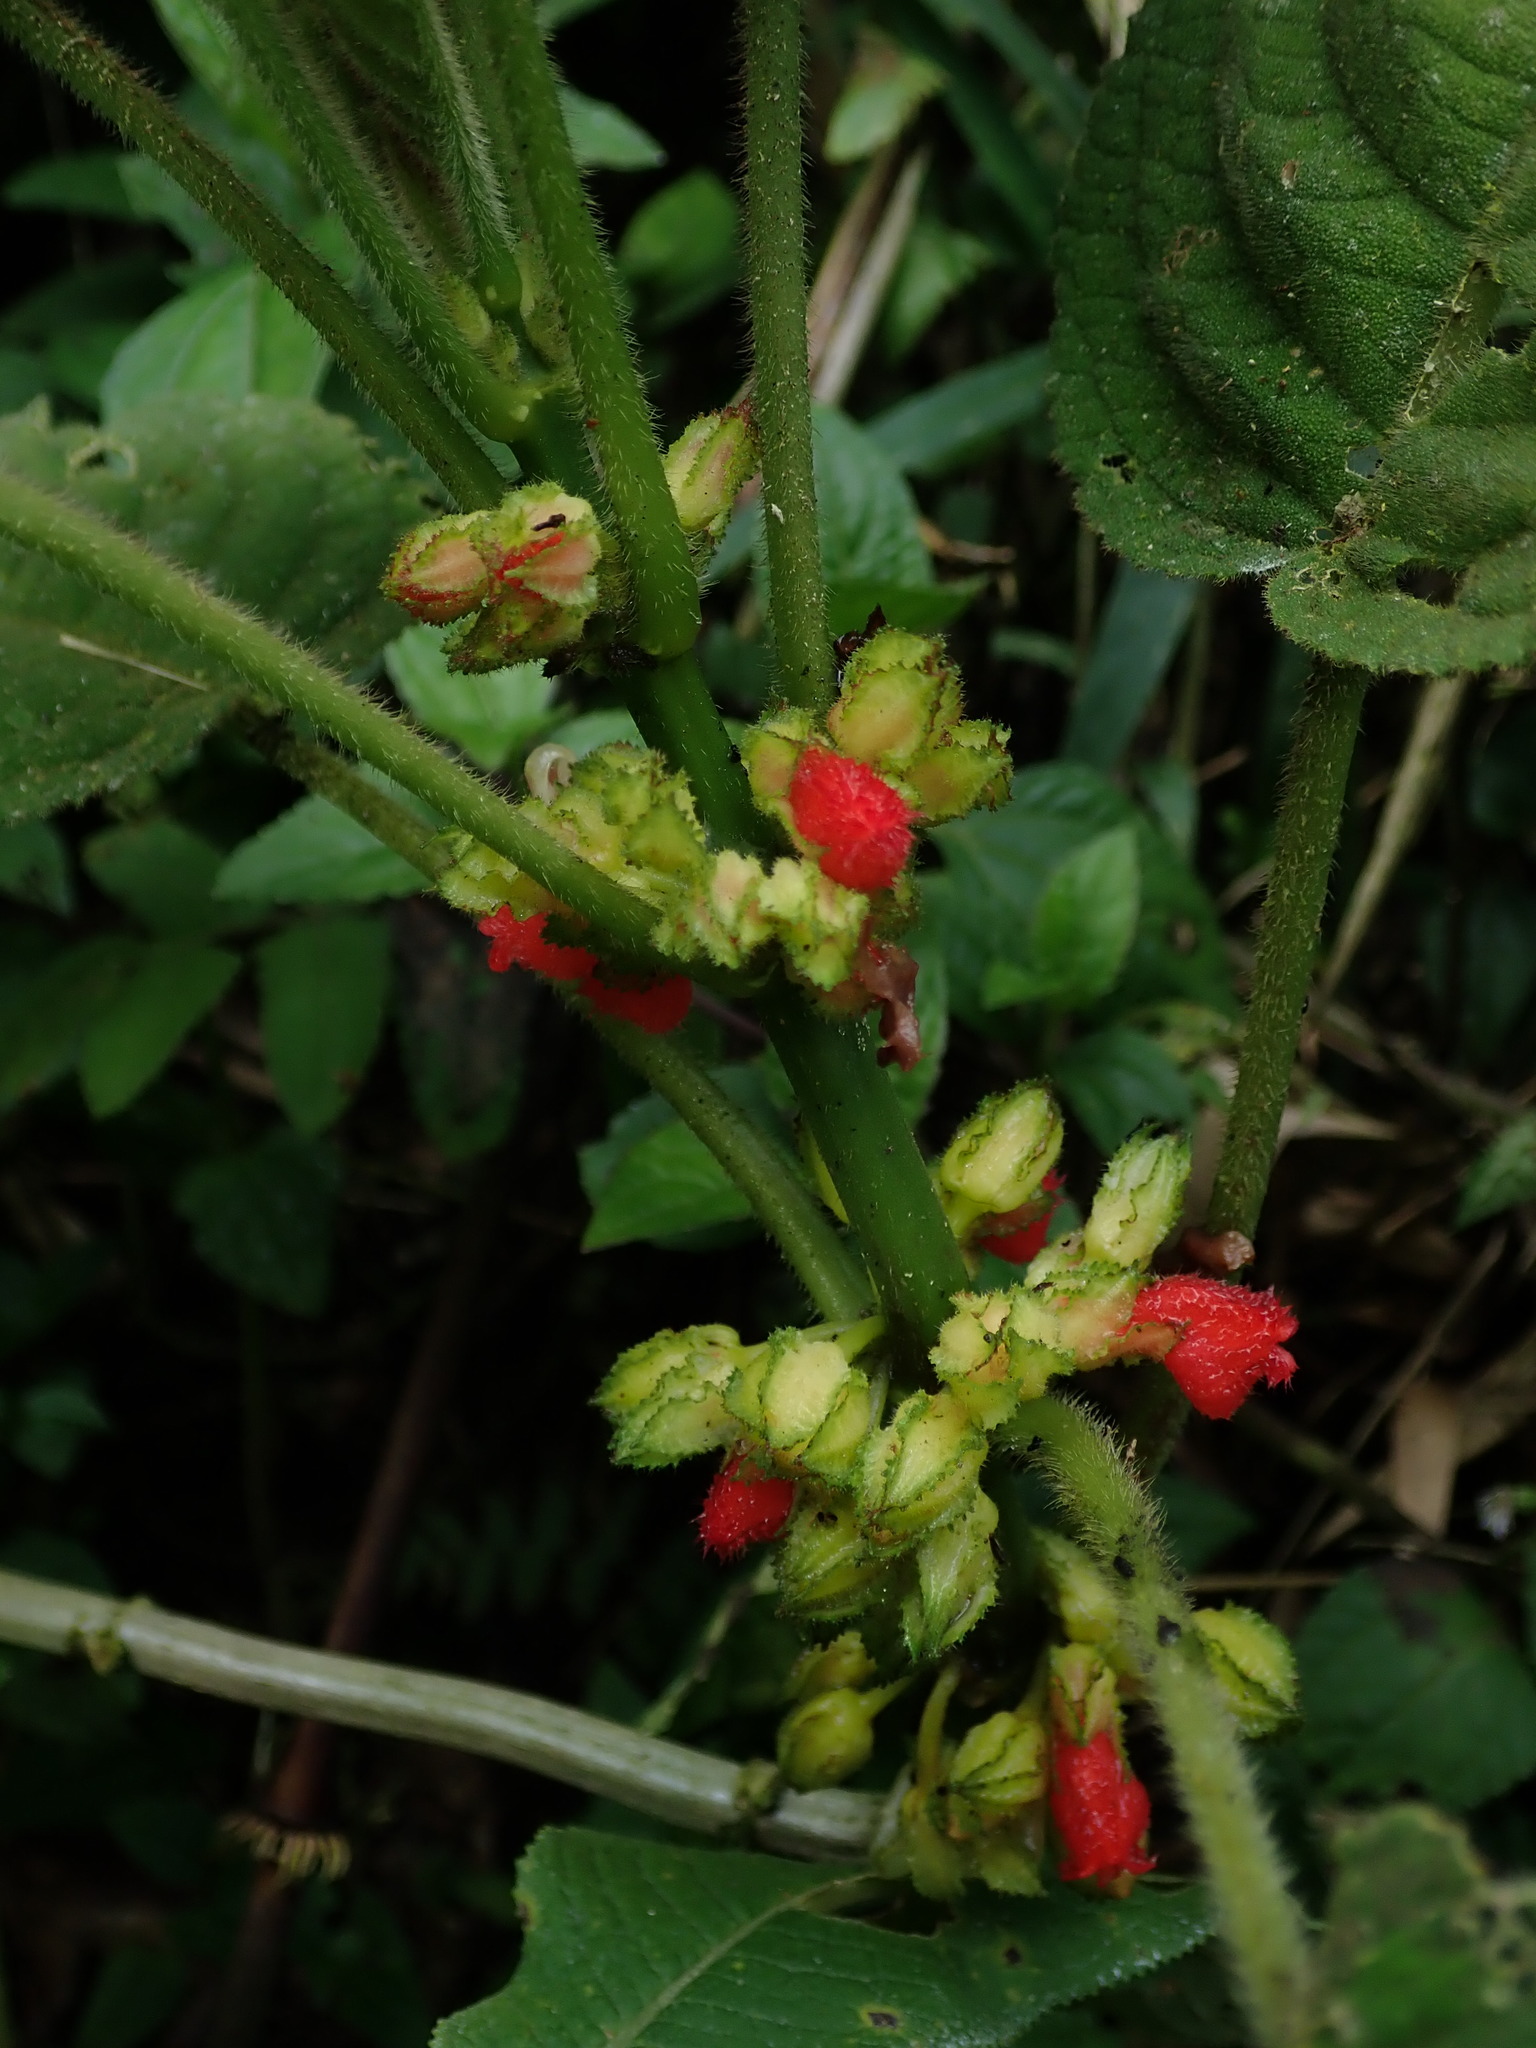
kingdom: Plantae
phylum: Tracheophyta
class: Magnoliopsida
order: Lamiales
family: Gesneriaceae
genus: Drymonia
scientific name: Drymonia teuscheri
